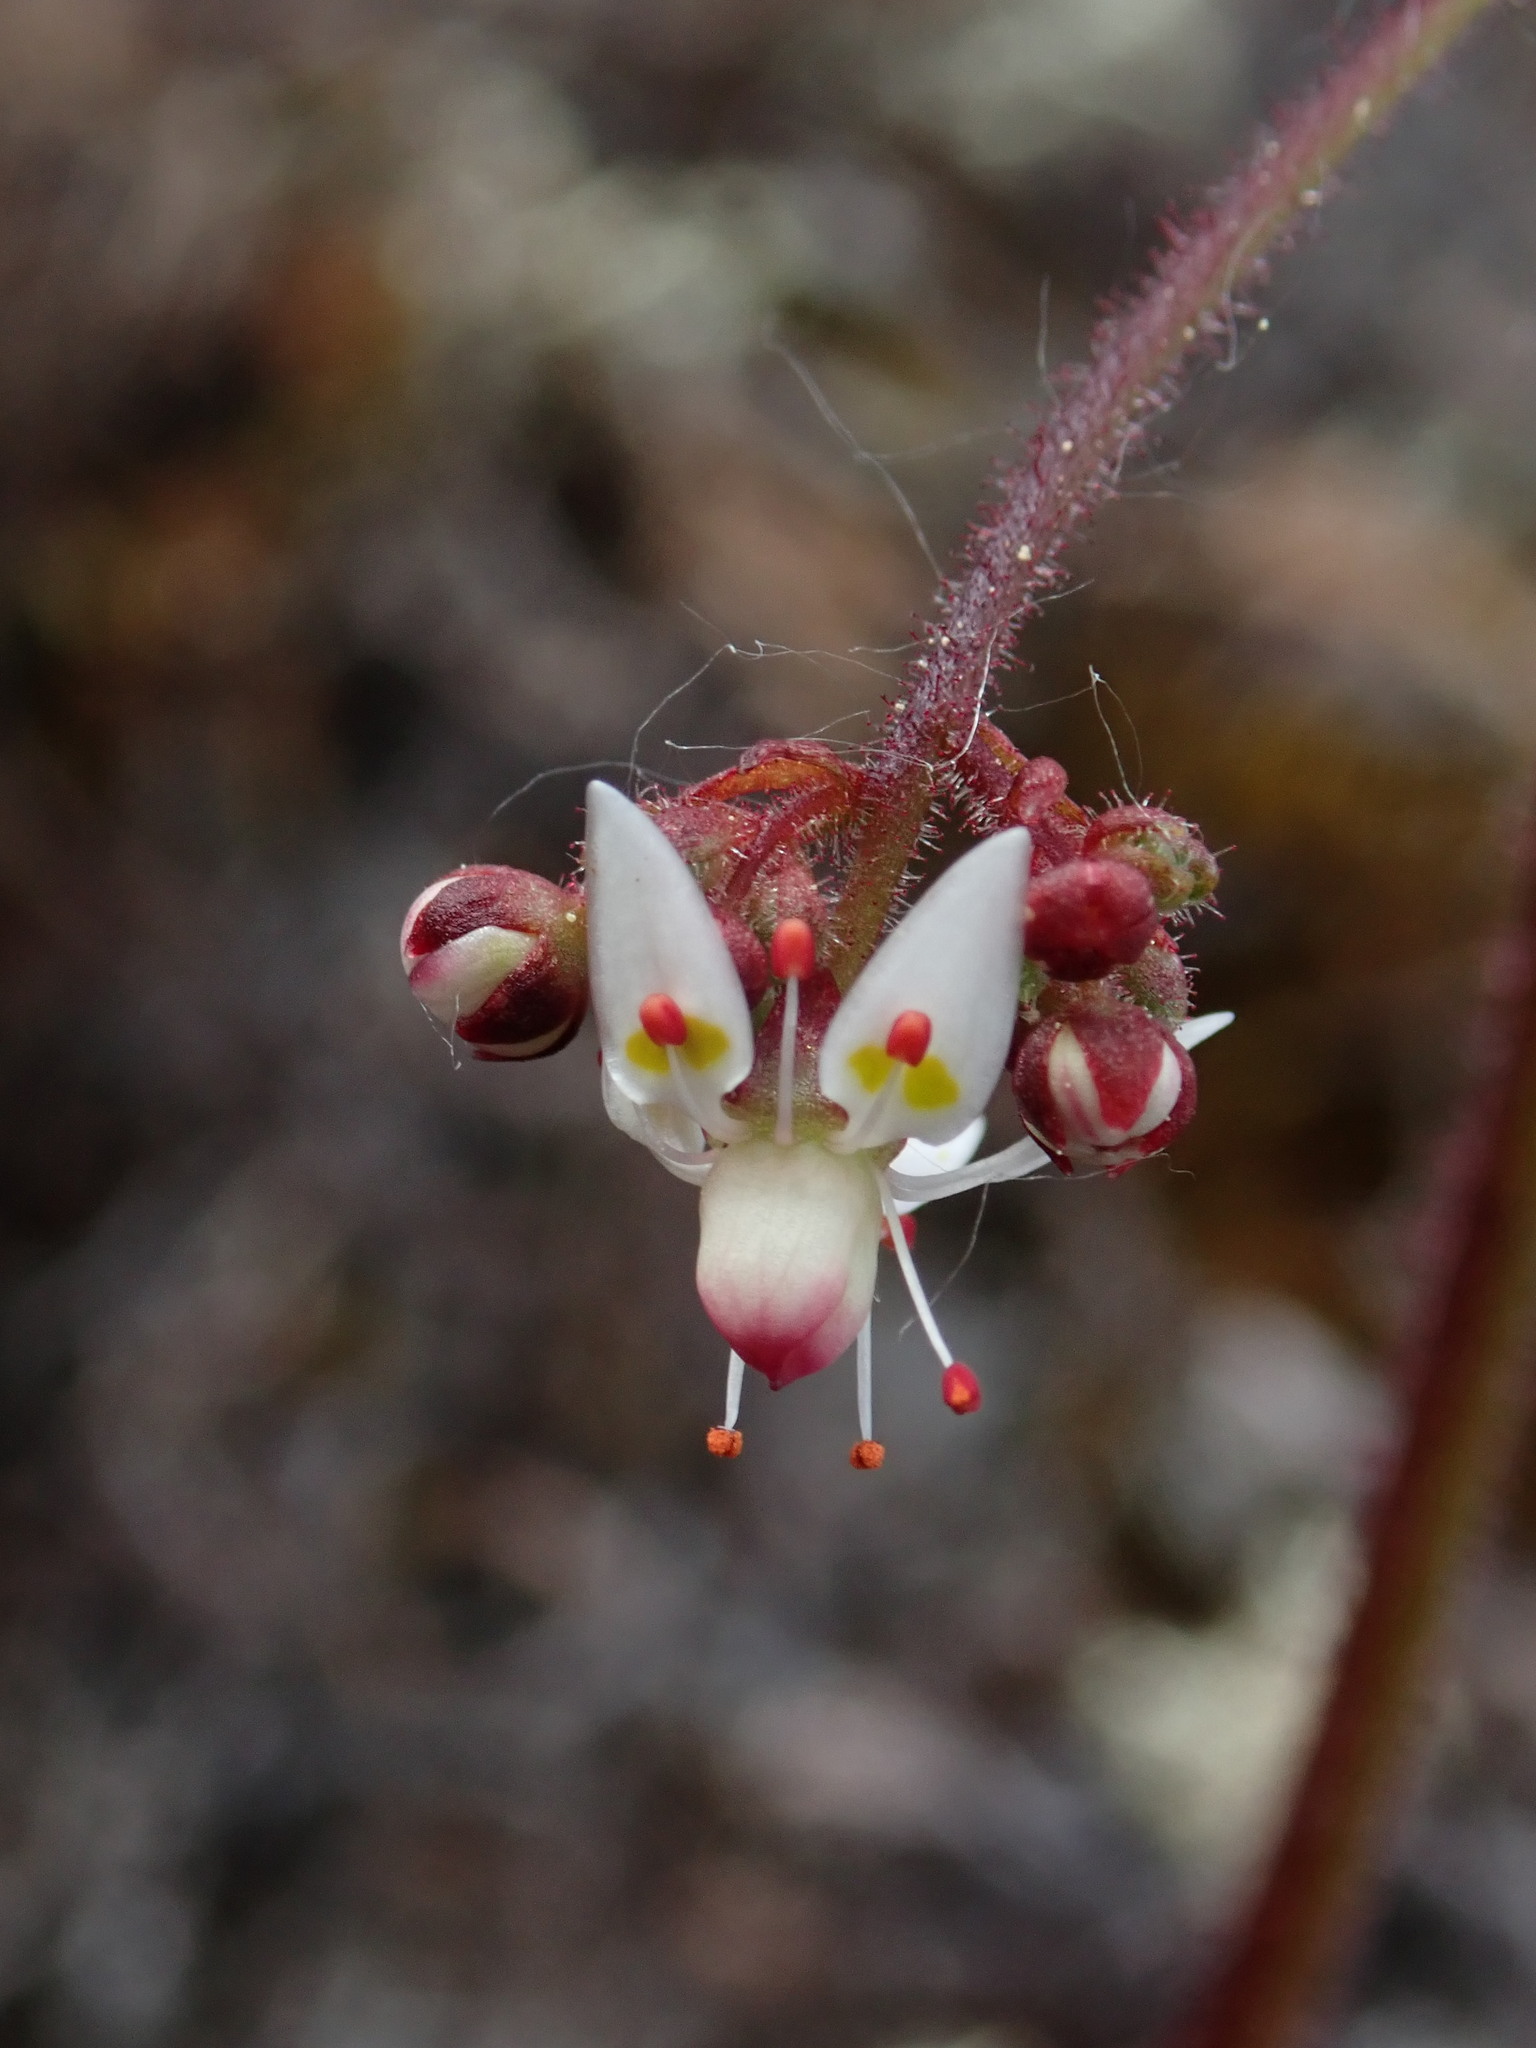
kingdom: Plantae
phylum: Tracheophyta
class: Magnoliopsida
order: Saxifragales
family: Saxifragaceae
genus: Micranthes
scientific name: Micranthes ferruginea
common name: Rusty saxifrage
